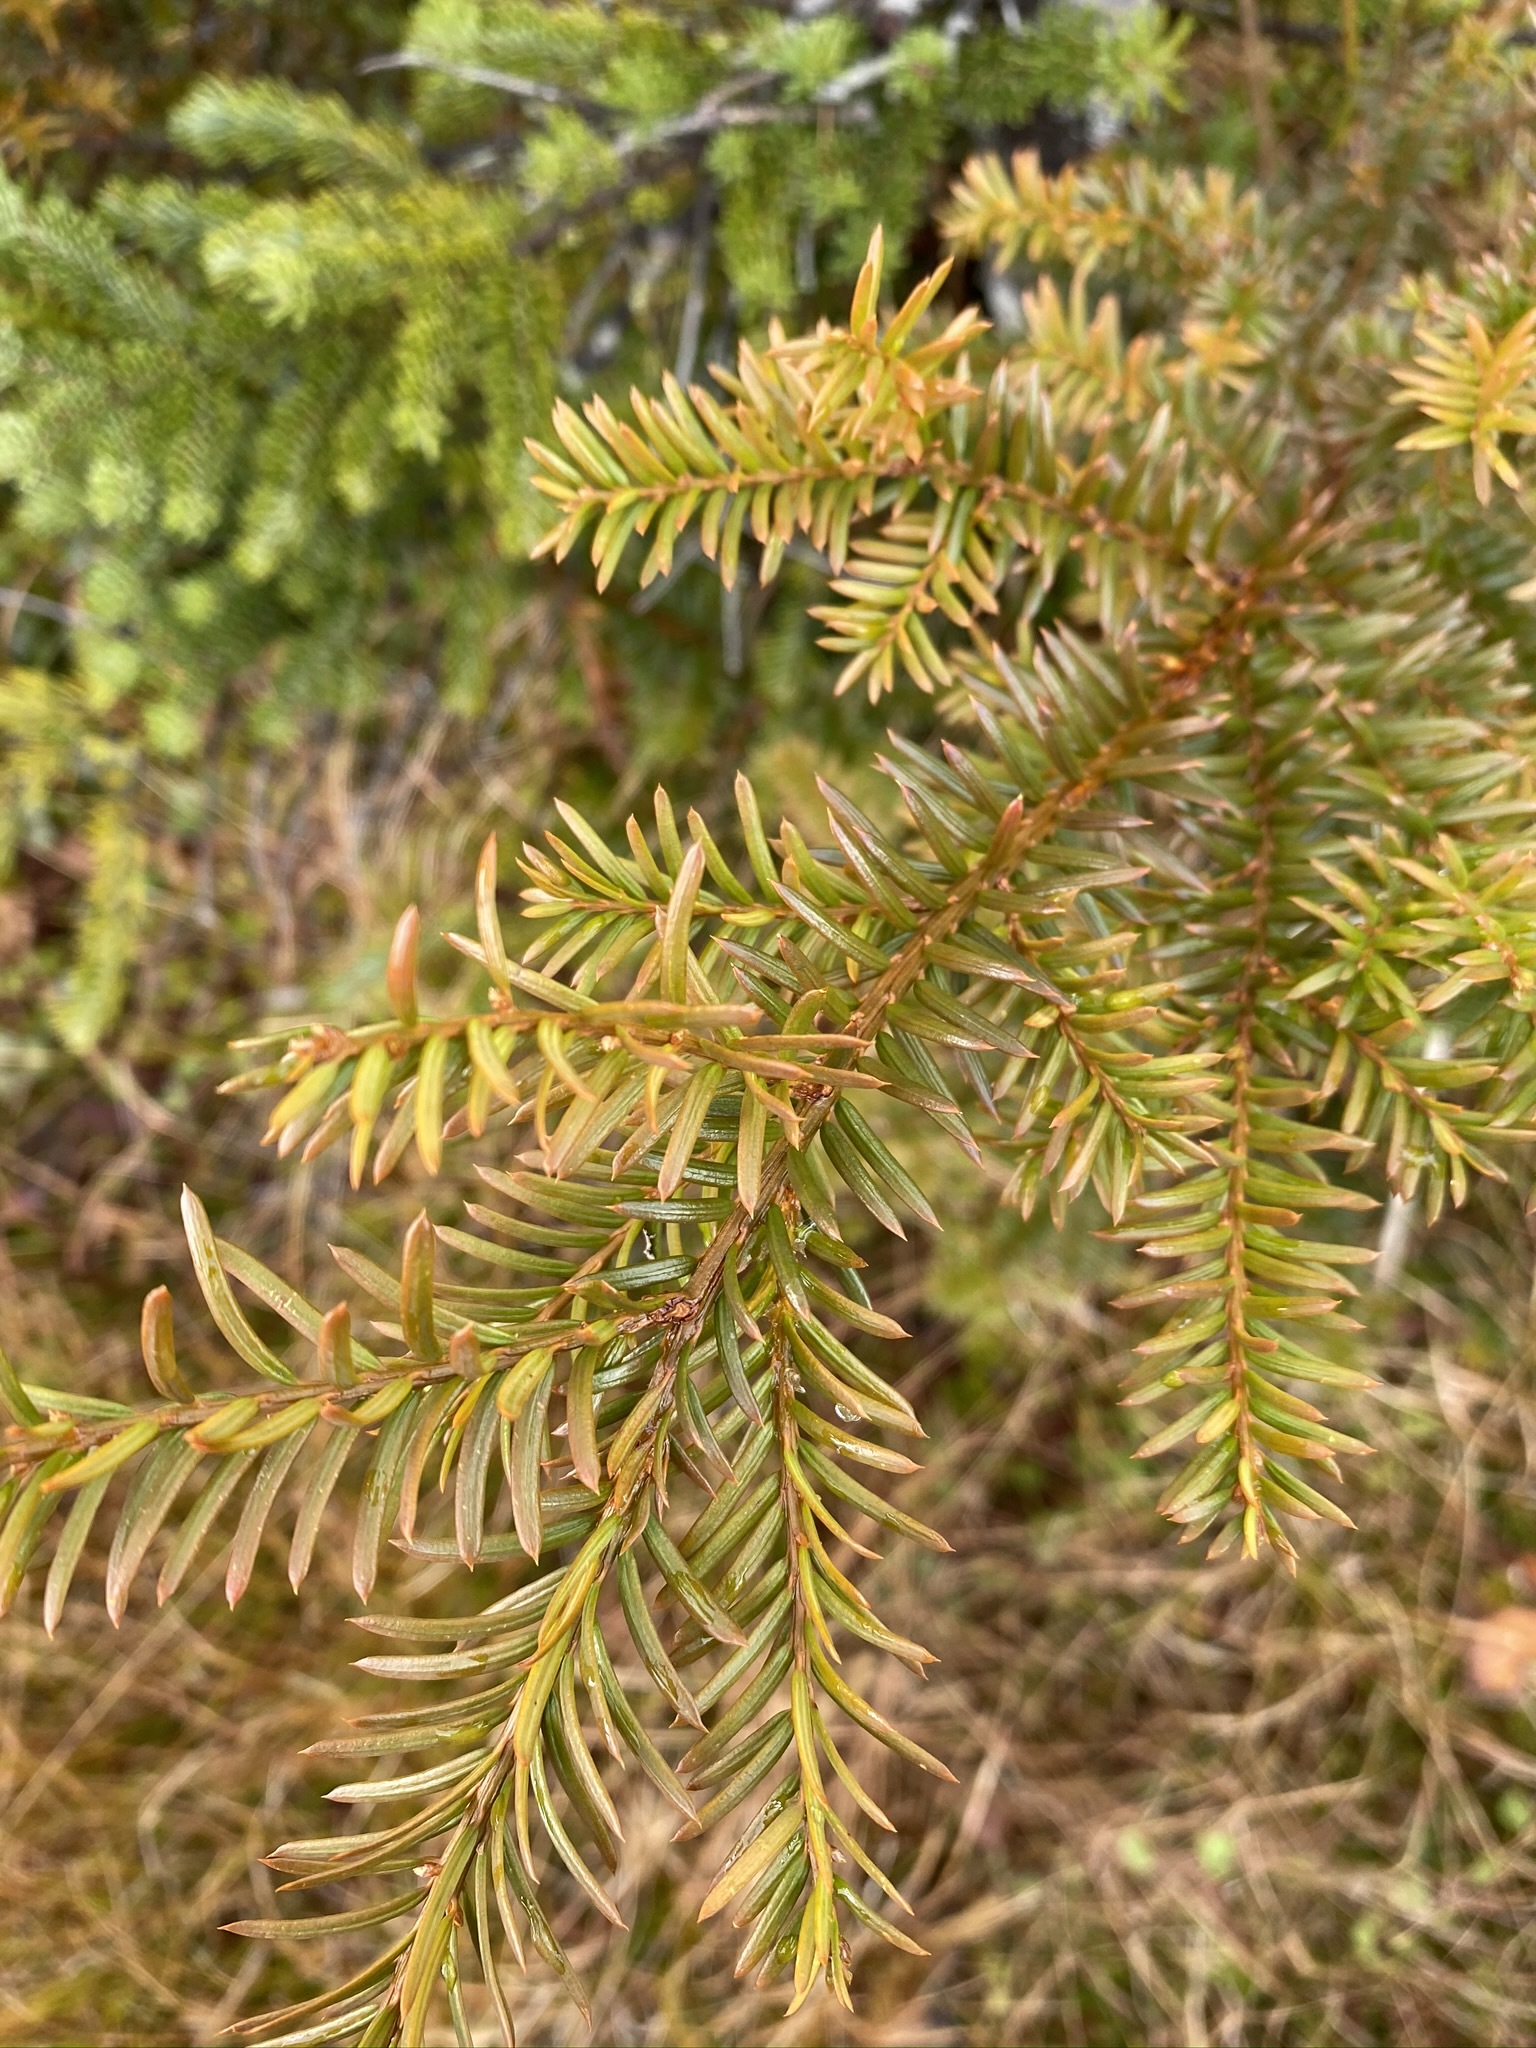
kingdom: Plantae
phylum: Tracheophyta
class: Pinopsida
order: Pinales
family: Taxaceae
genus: Taxus
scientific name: Taxus canadensis
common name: American yew
